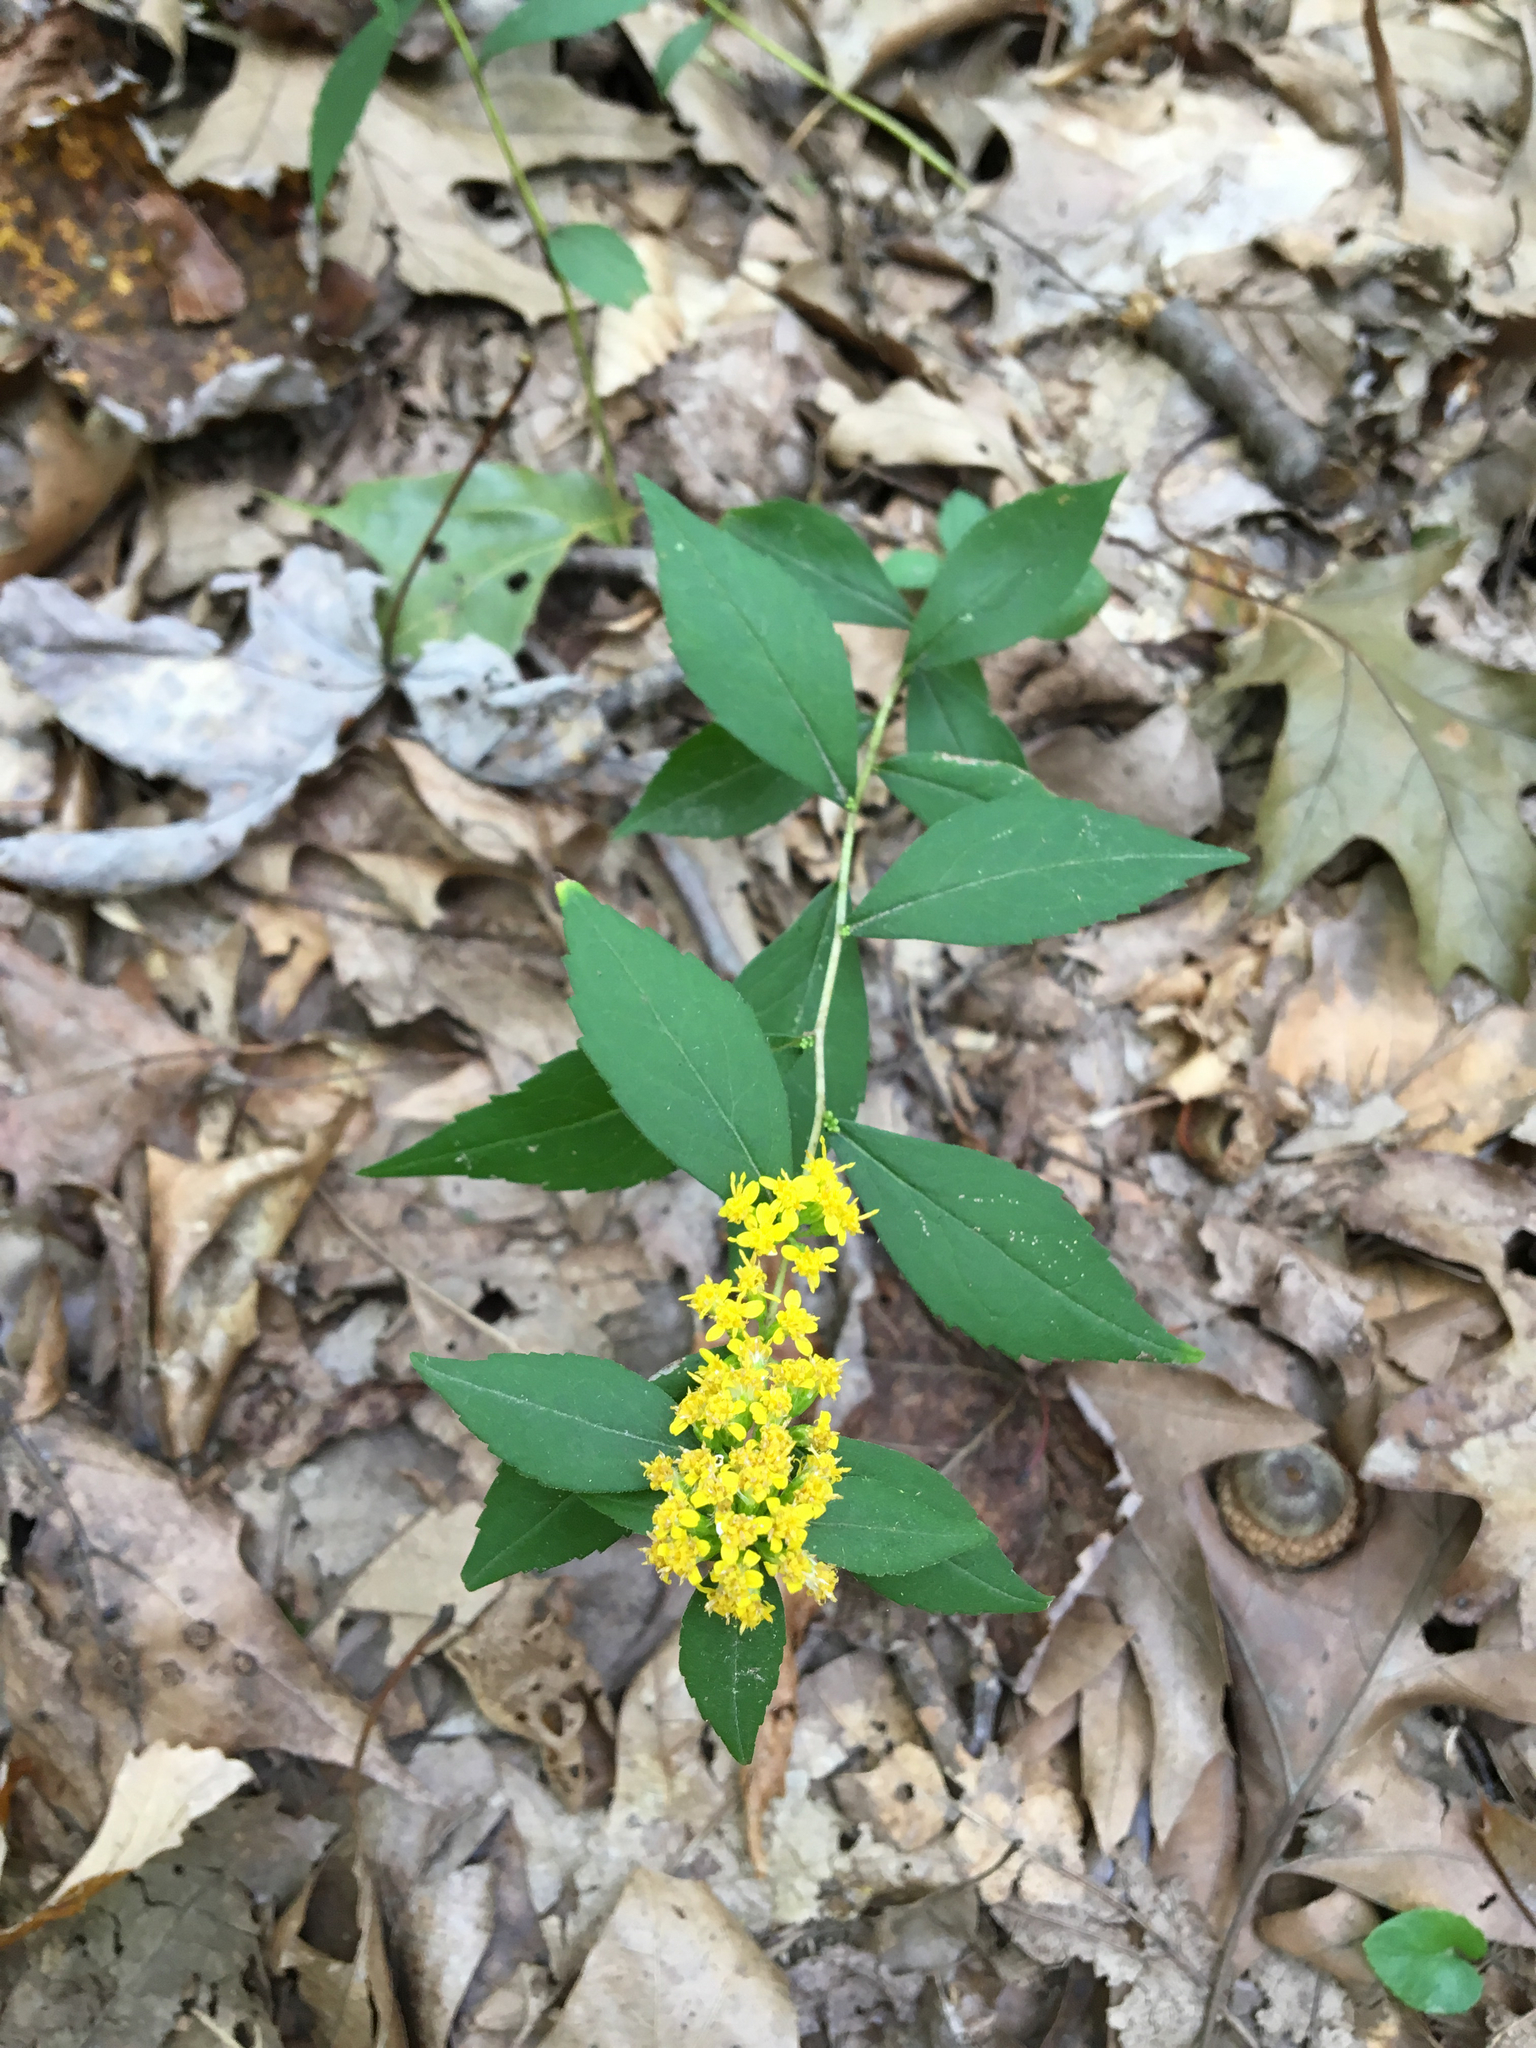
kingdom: Plantae
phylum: Tracheophyta
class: Magnoliopsida
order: Asterales
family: Asteraceae
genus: Solidago
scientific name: Solidago caesia
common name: Woodland goldenrod
